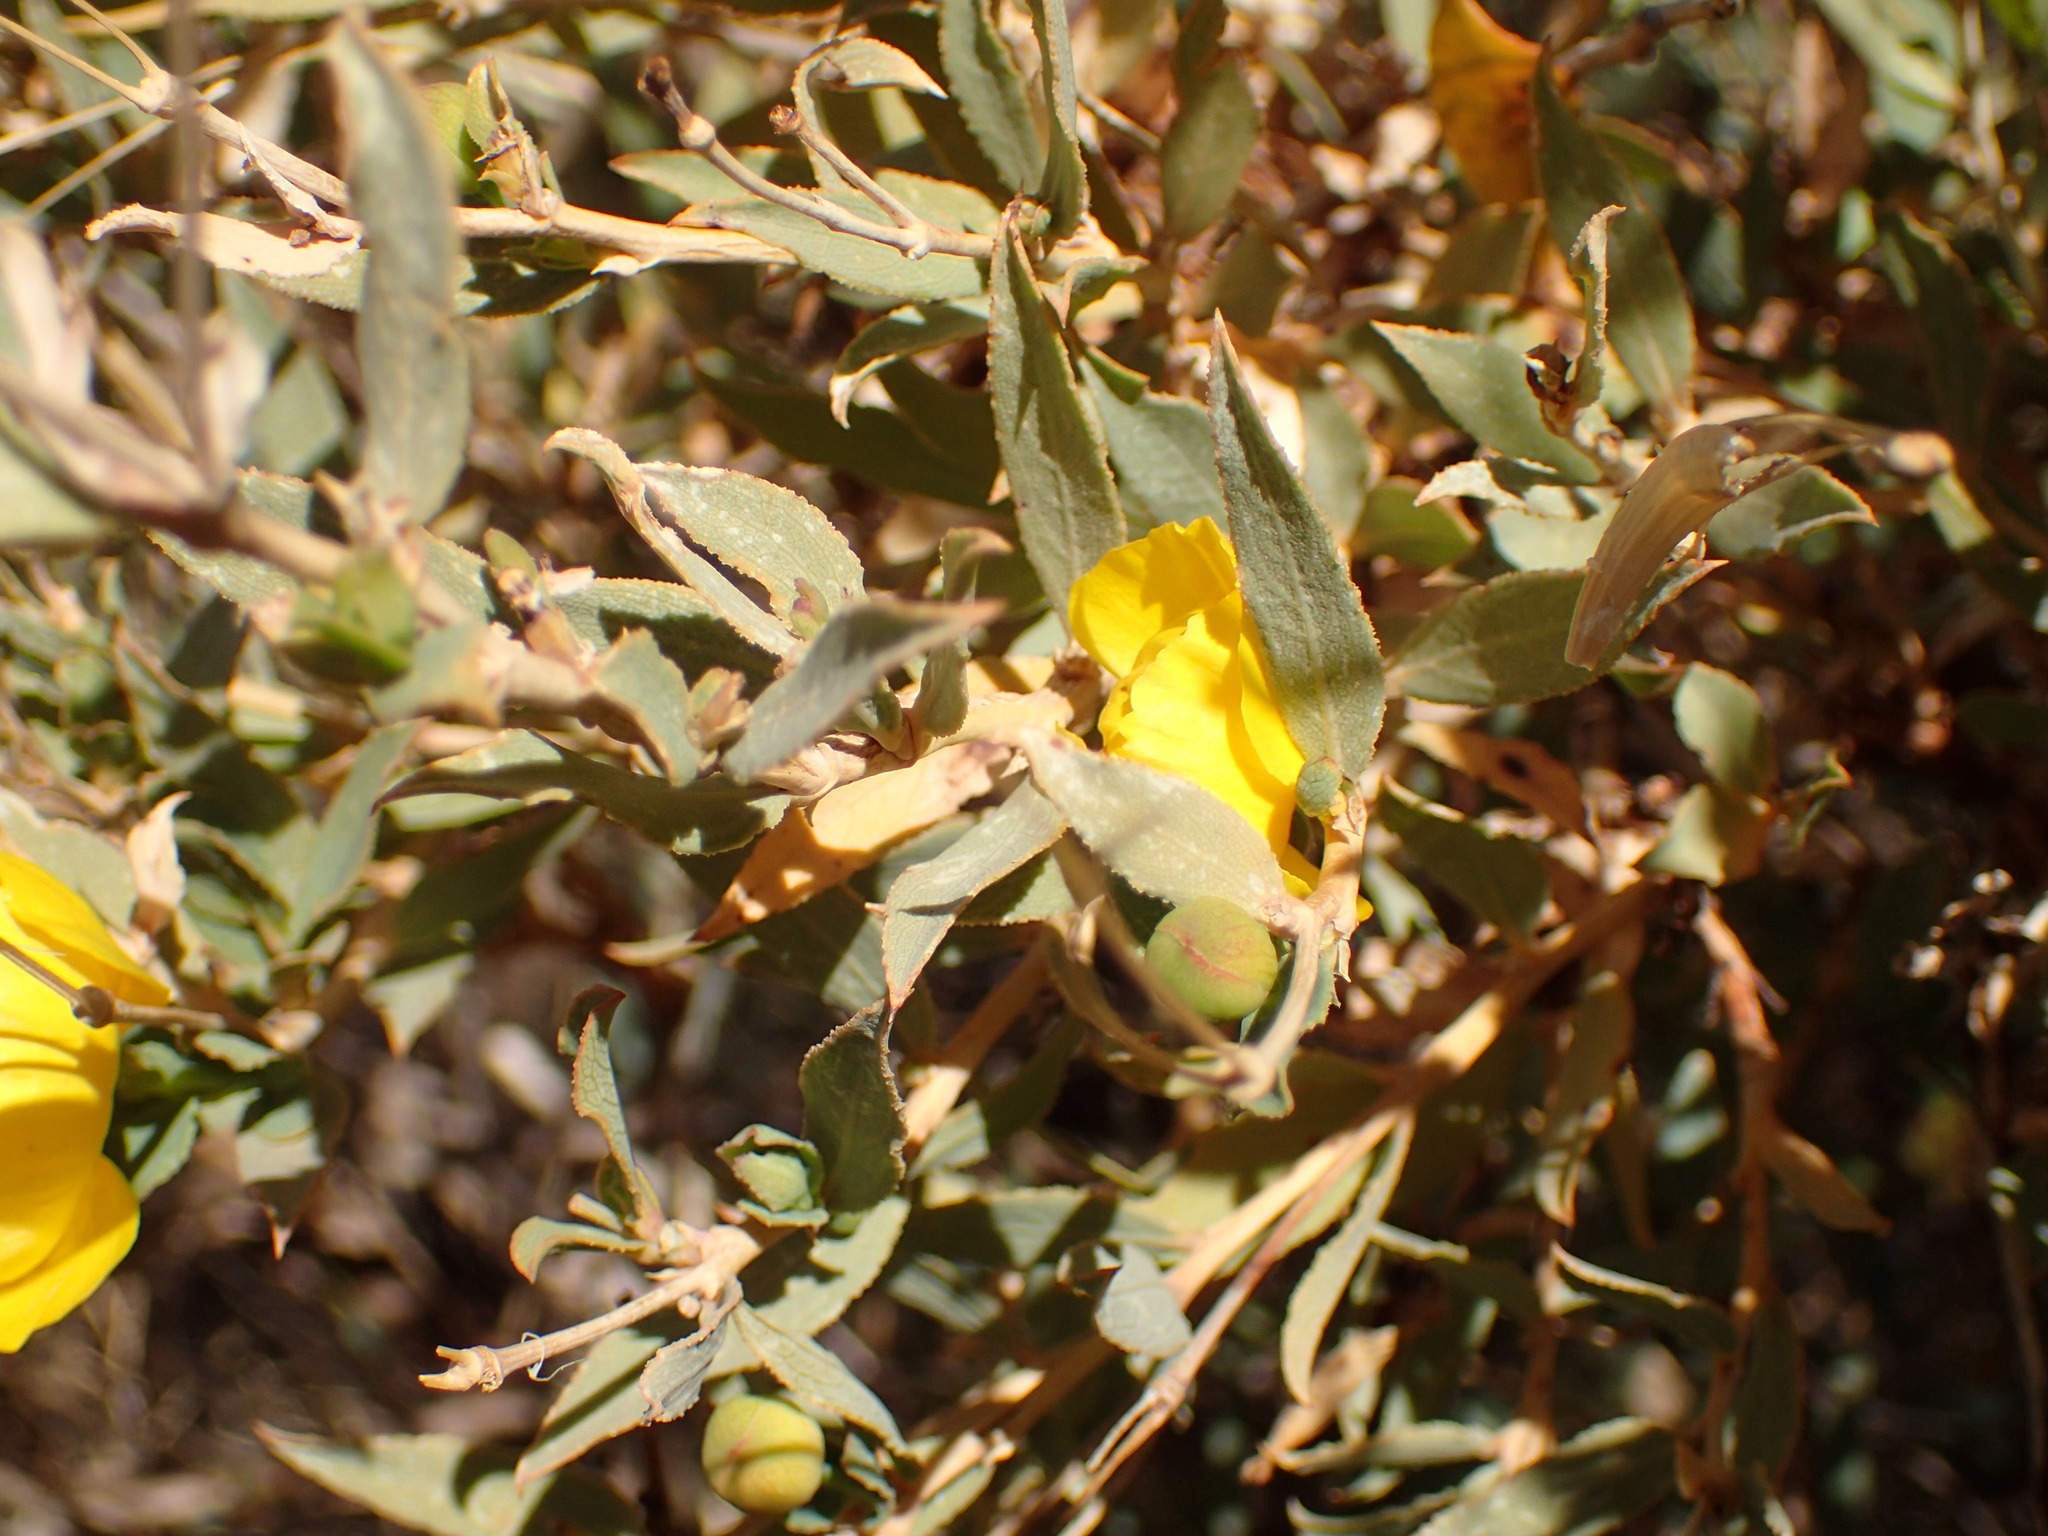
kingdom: Plantae
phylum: Tracheophyta
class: Magnoliopsida
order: Ranunculales
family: Papaveraceae
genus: Dendromecon
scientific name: Dendromecon rigida
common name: Tree poppy
